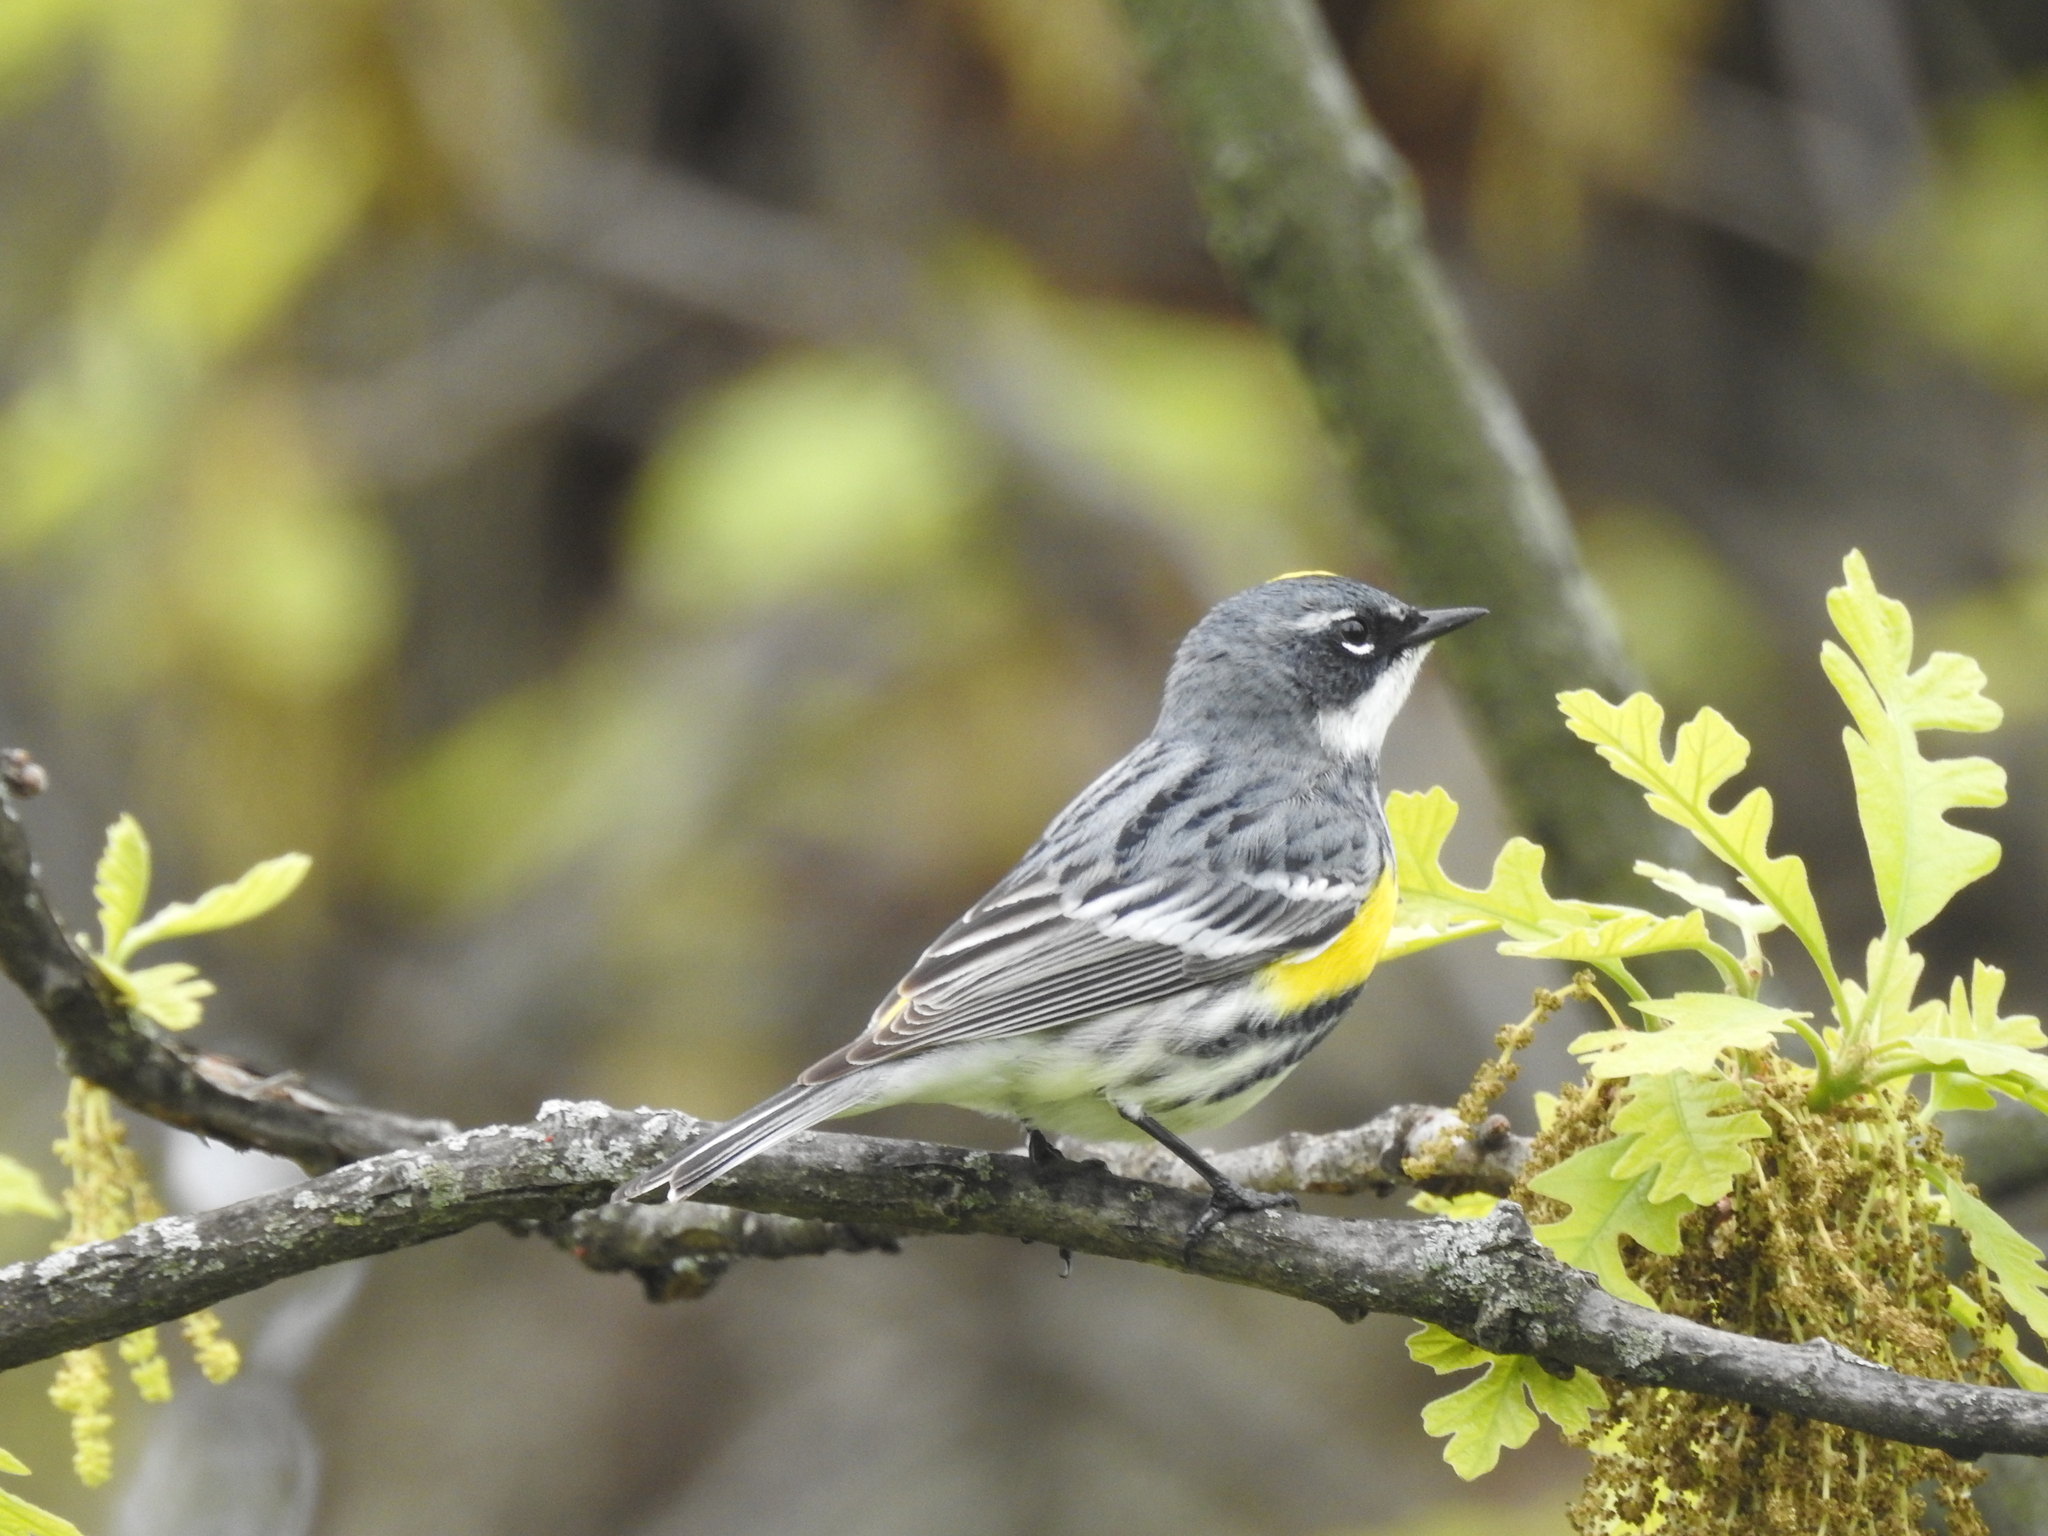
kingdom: Animalia
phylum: Chordata
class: Aves
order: Passeriformes
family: Parulidae
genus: Setophaga
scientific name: Setophaga coronata
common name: Myrtle warbler
